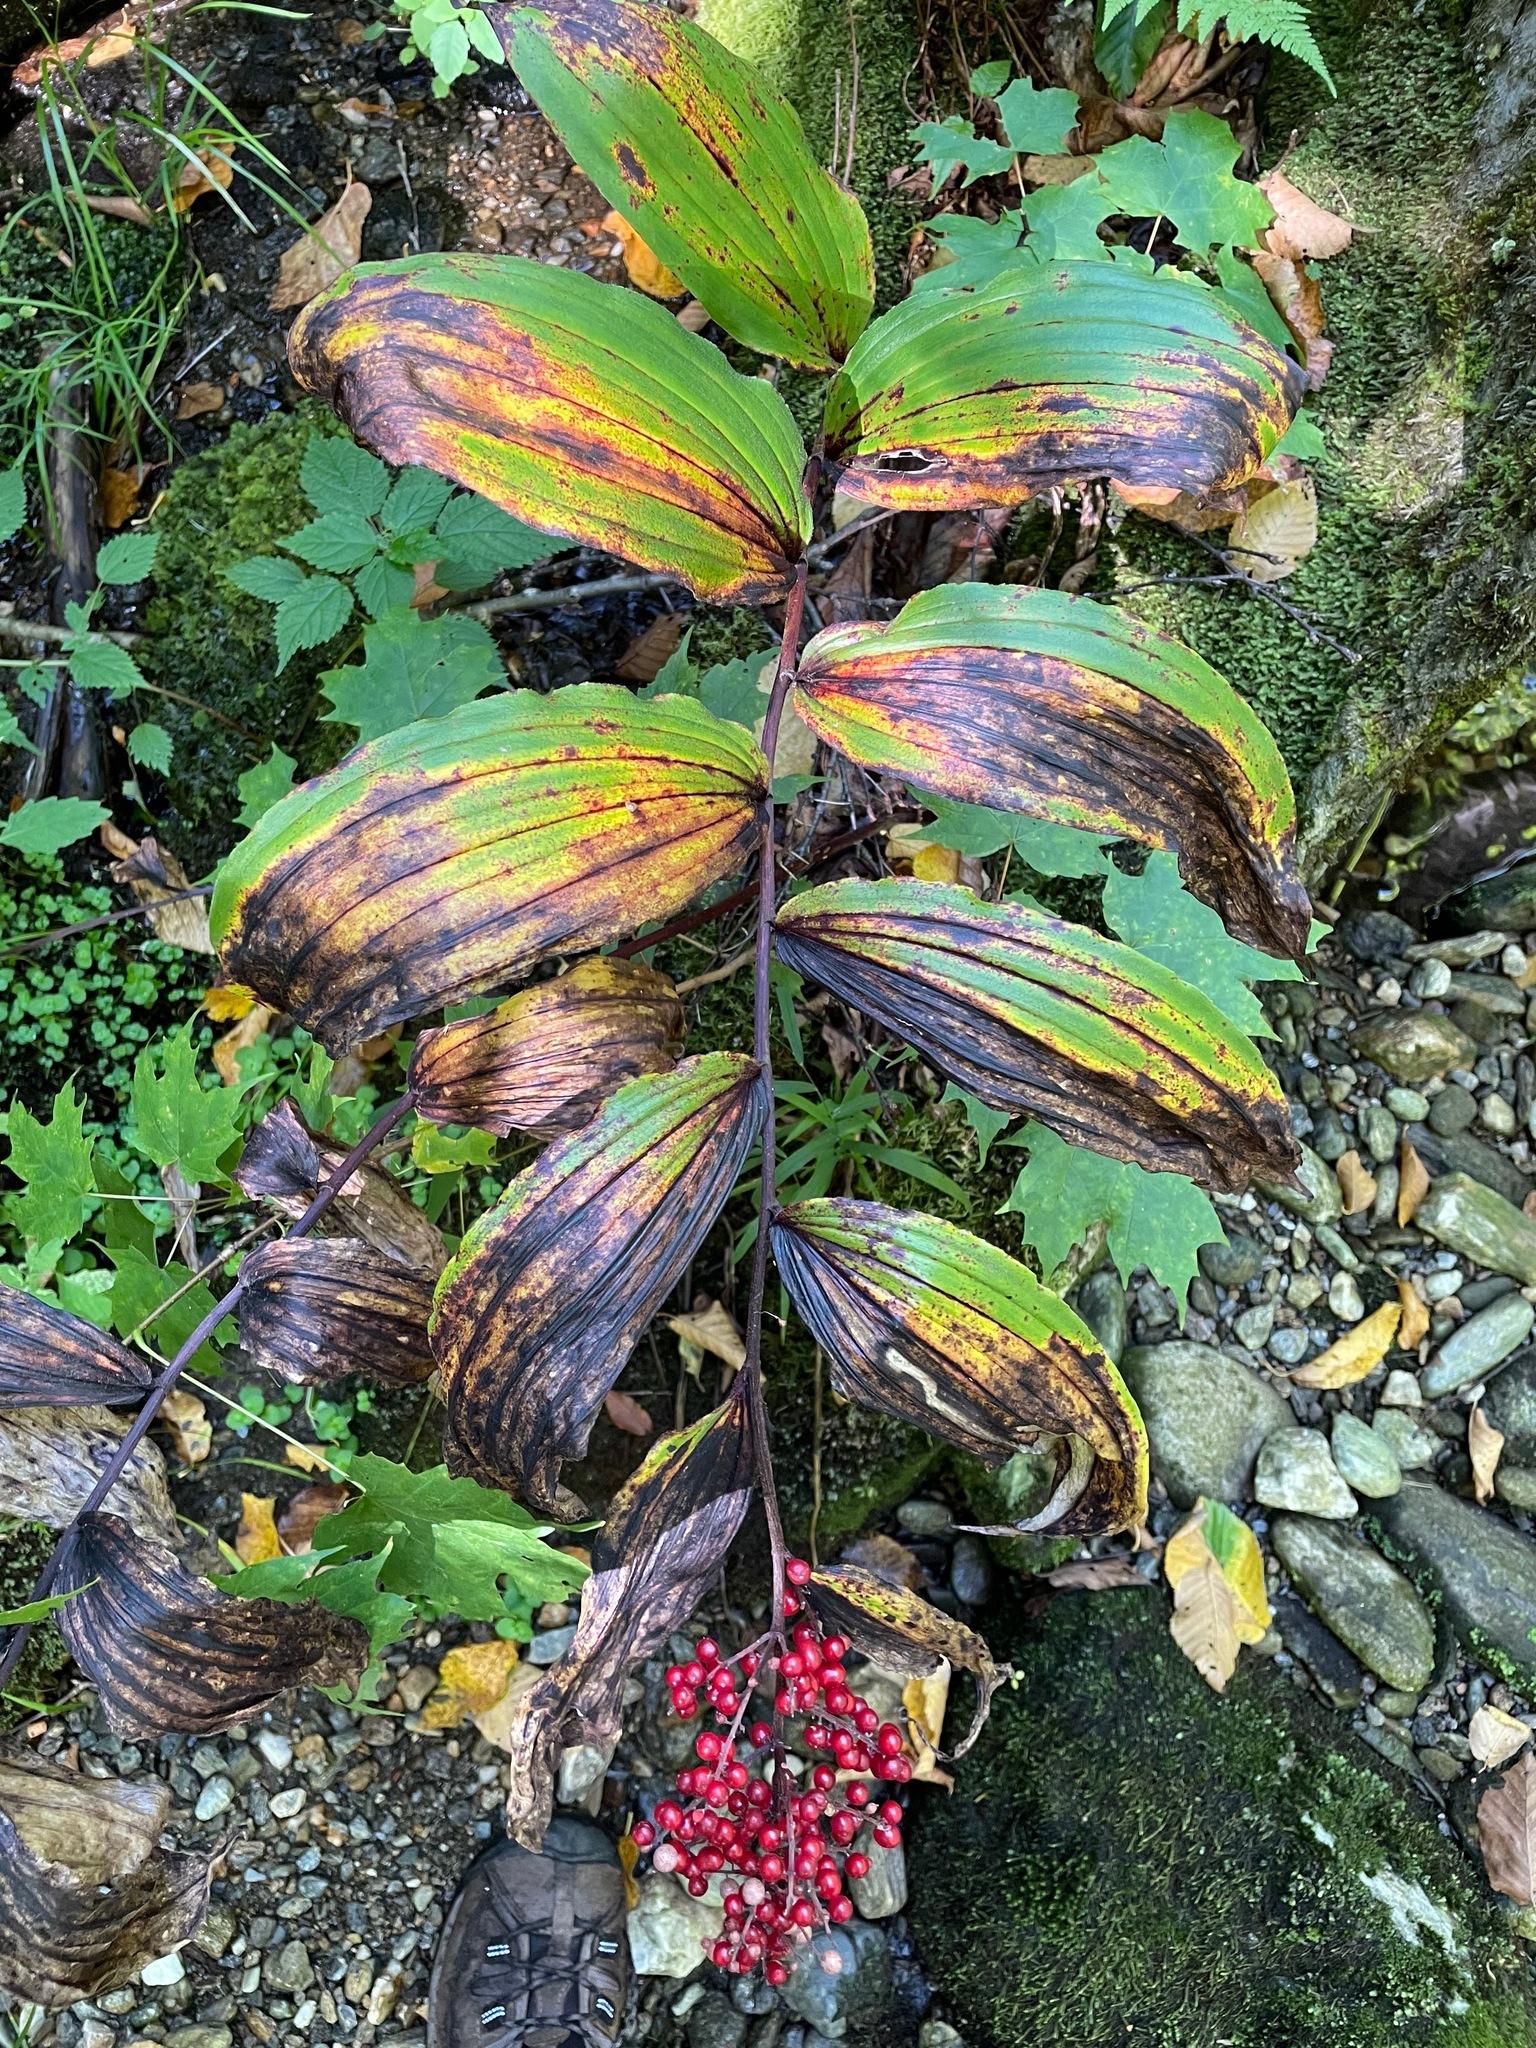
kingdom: Plantae
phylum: Tracheophyta
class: Liliopsida
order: Asparagales
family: Asparagaceae
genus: Maianthemum
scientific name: Maianthemum racemosum
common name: False spikenard
